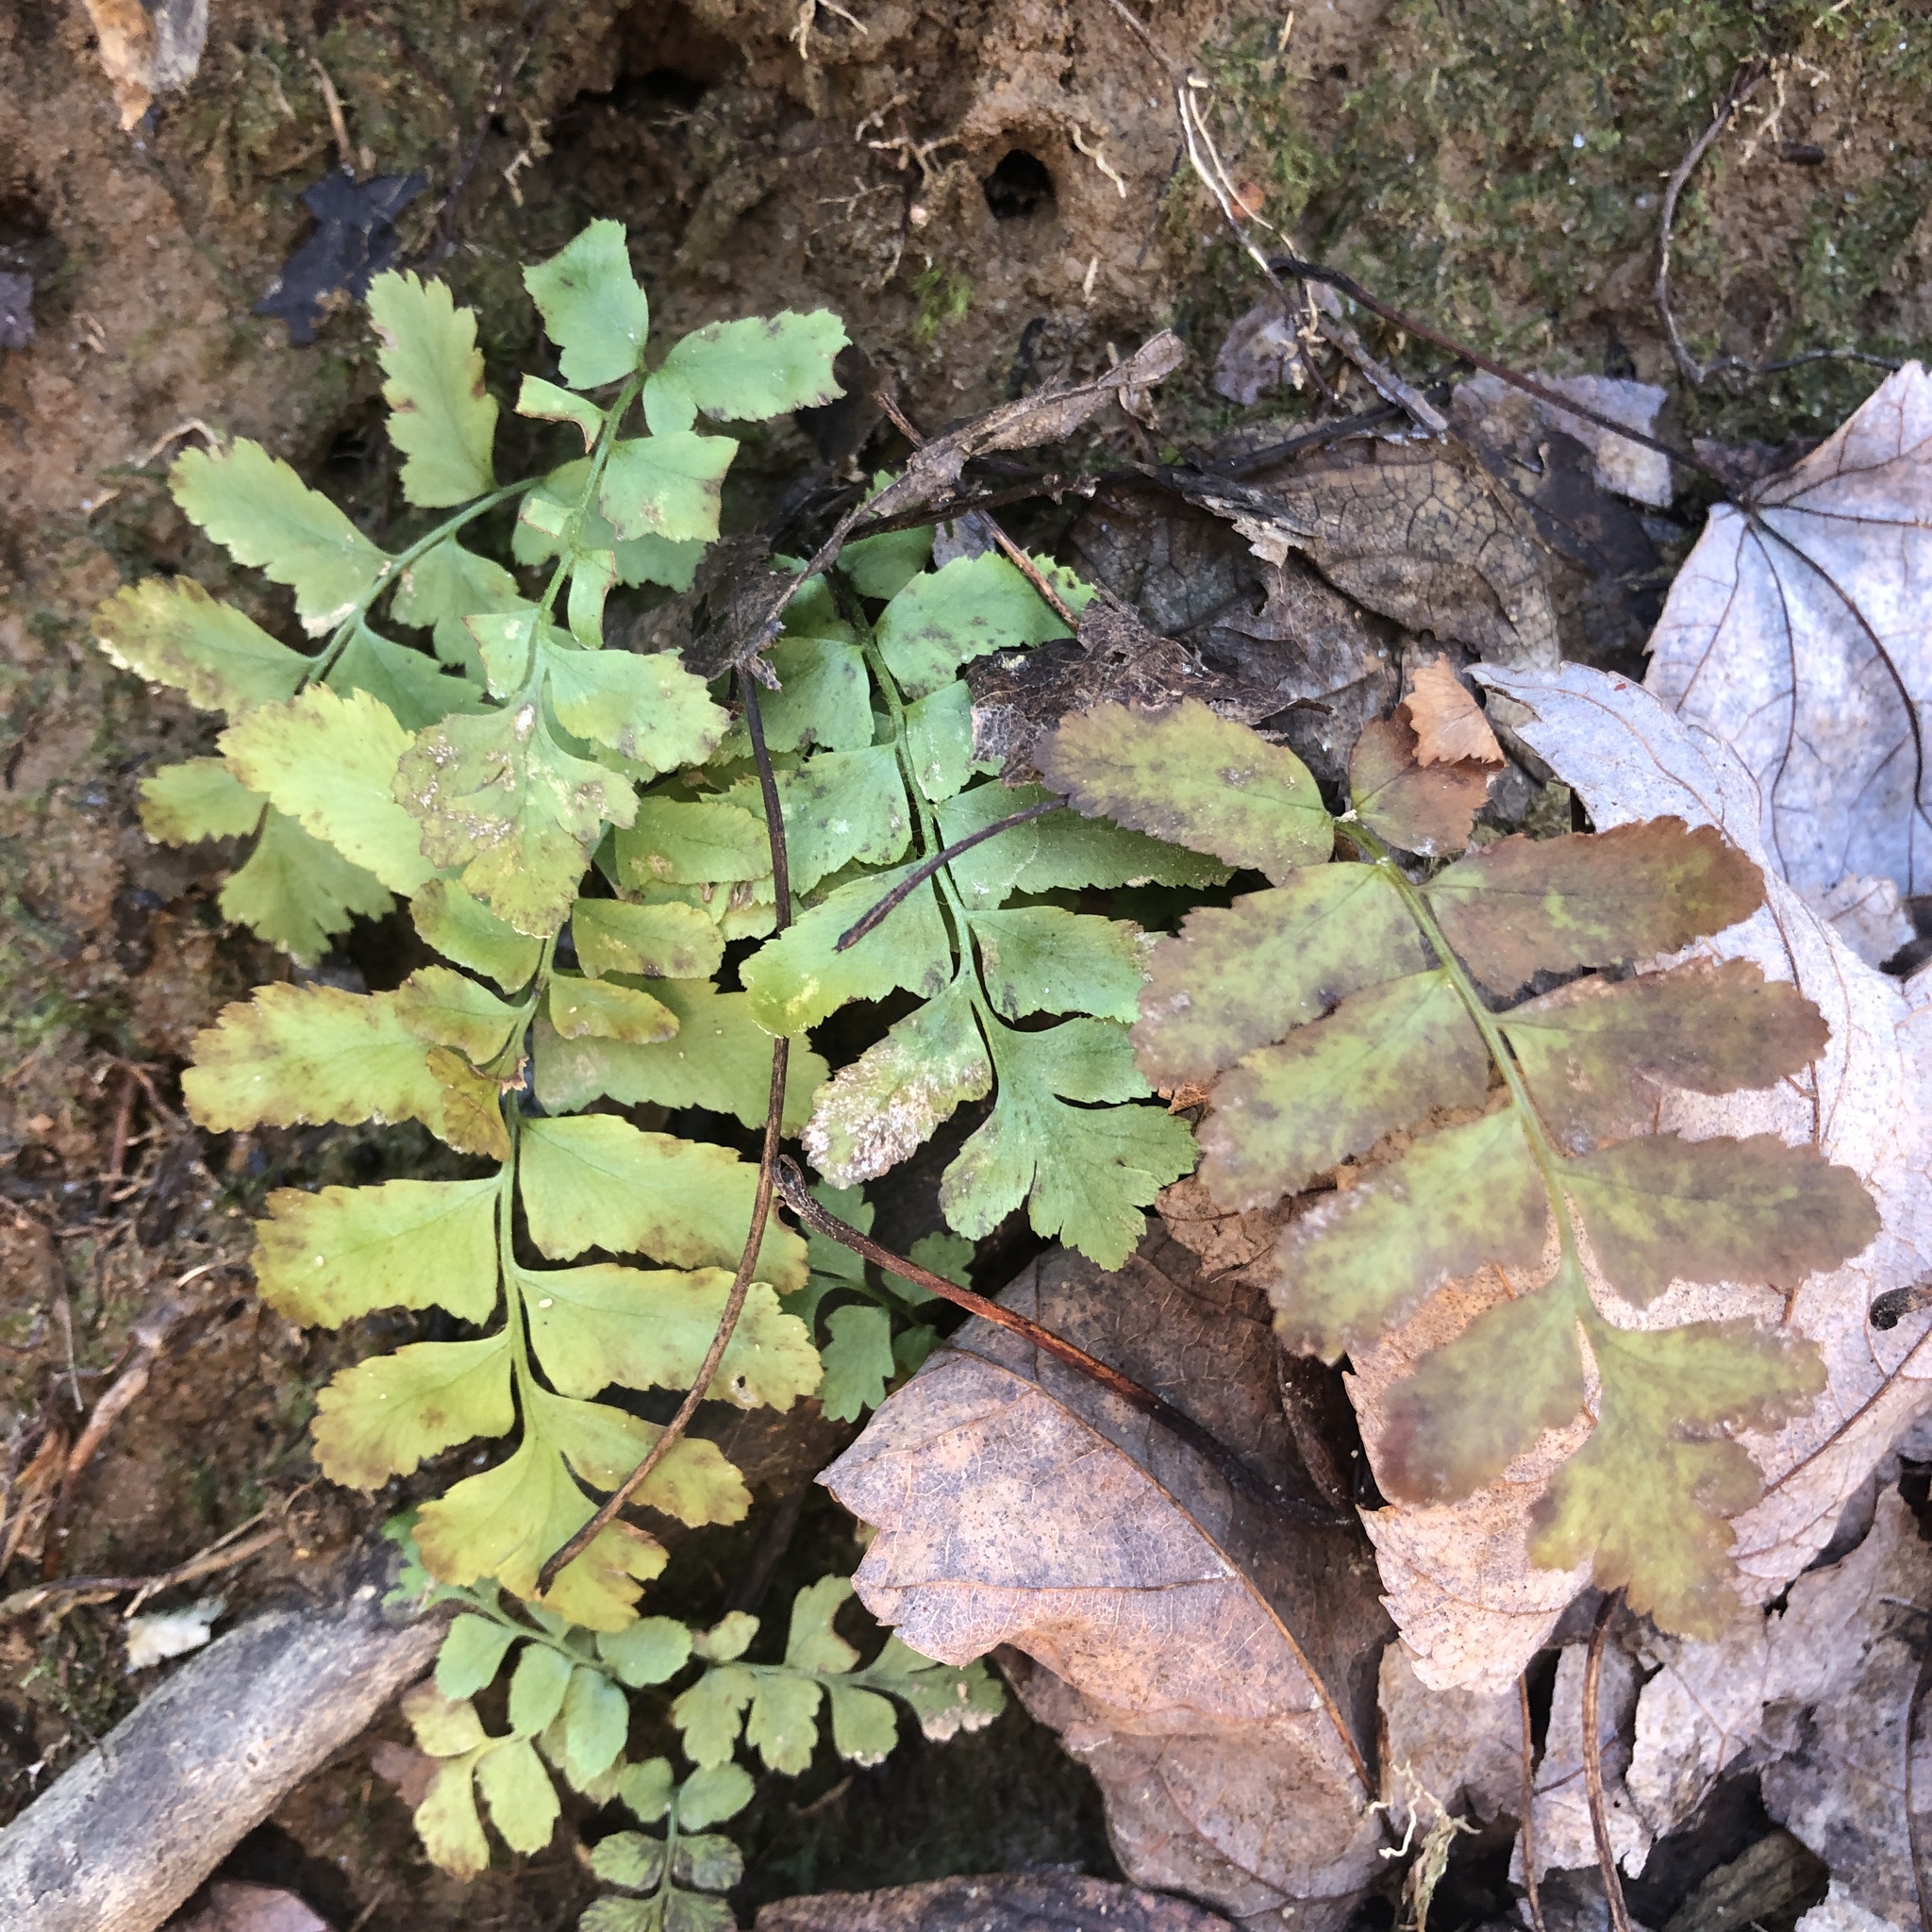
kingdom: Plantae
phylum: Tracheophyta
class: Polypodiopsida
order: Polypodiales
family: Dryopteridaceae
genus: Polystichum
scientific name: Polystichum acrostichoides
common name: Christmas fern
